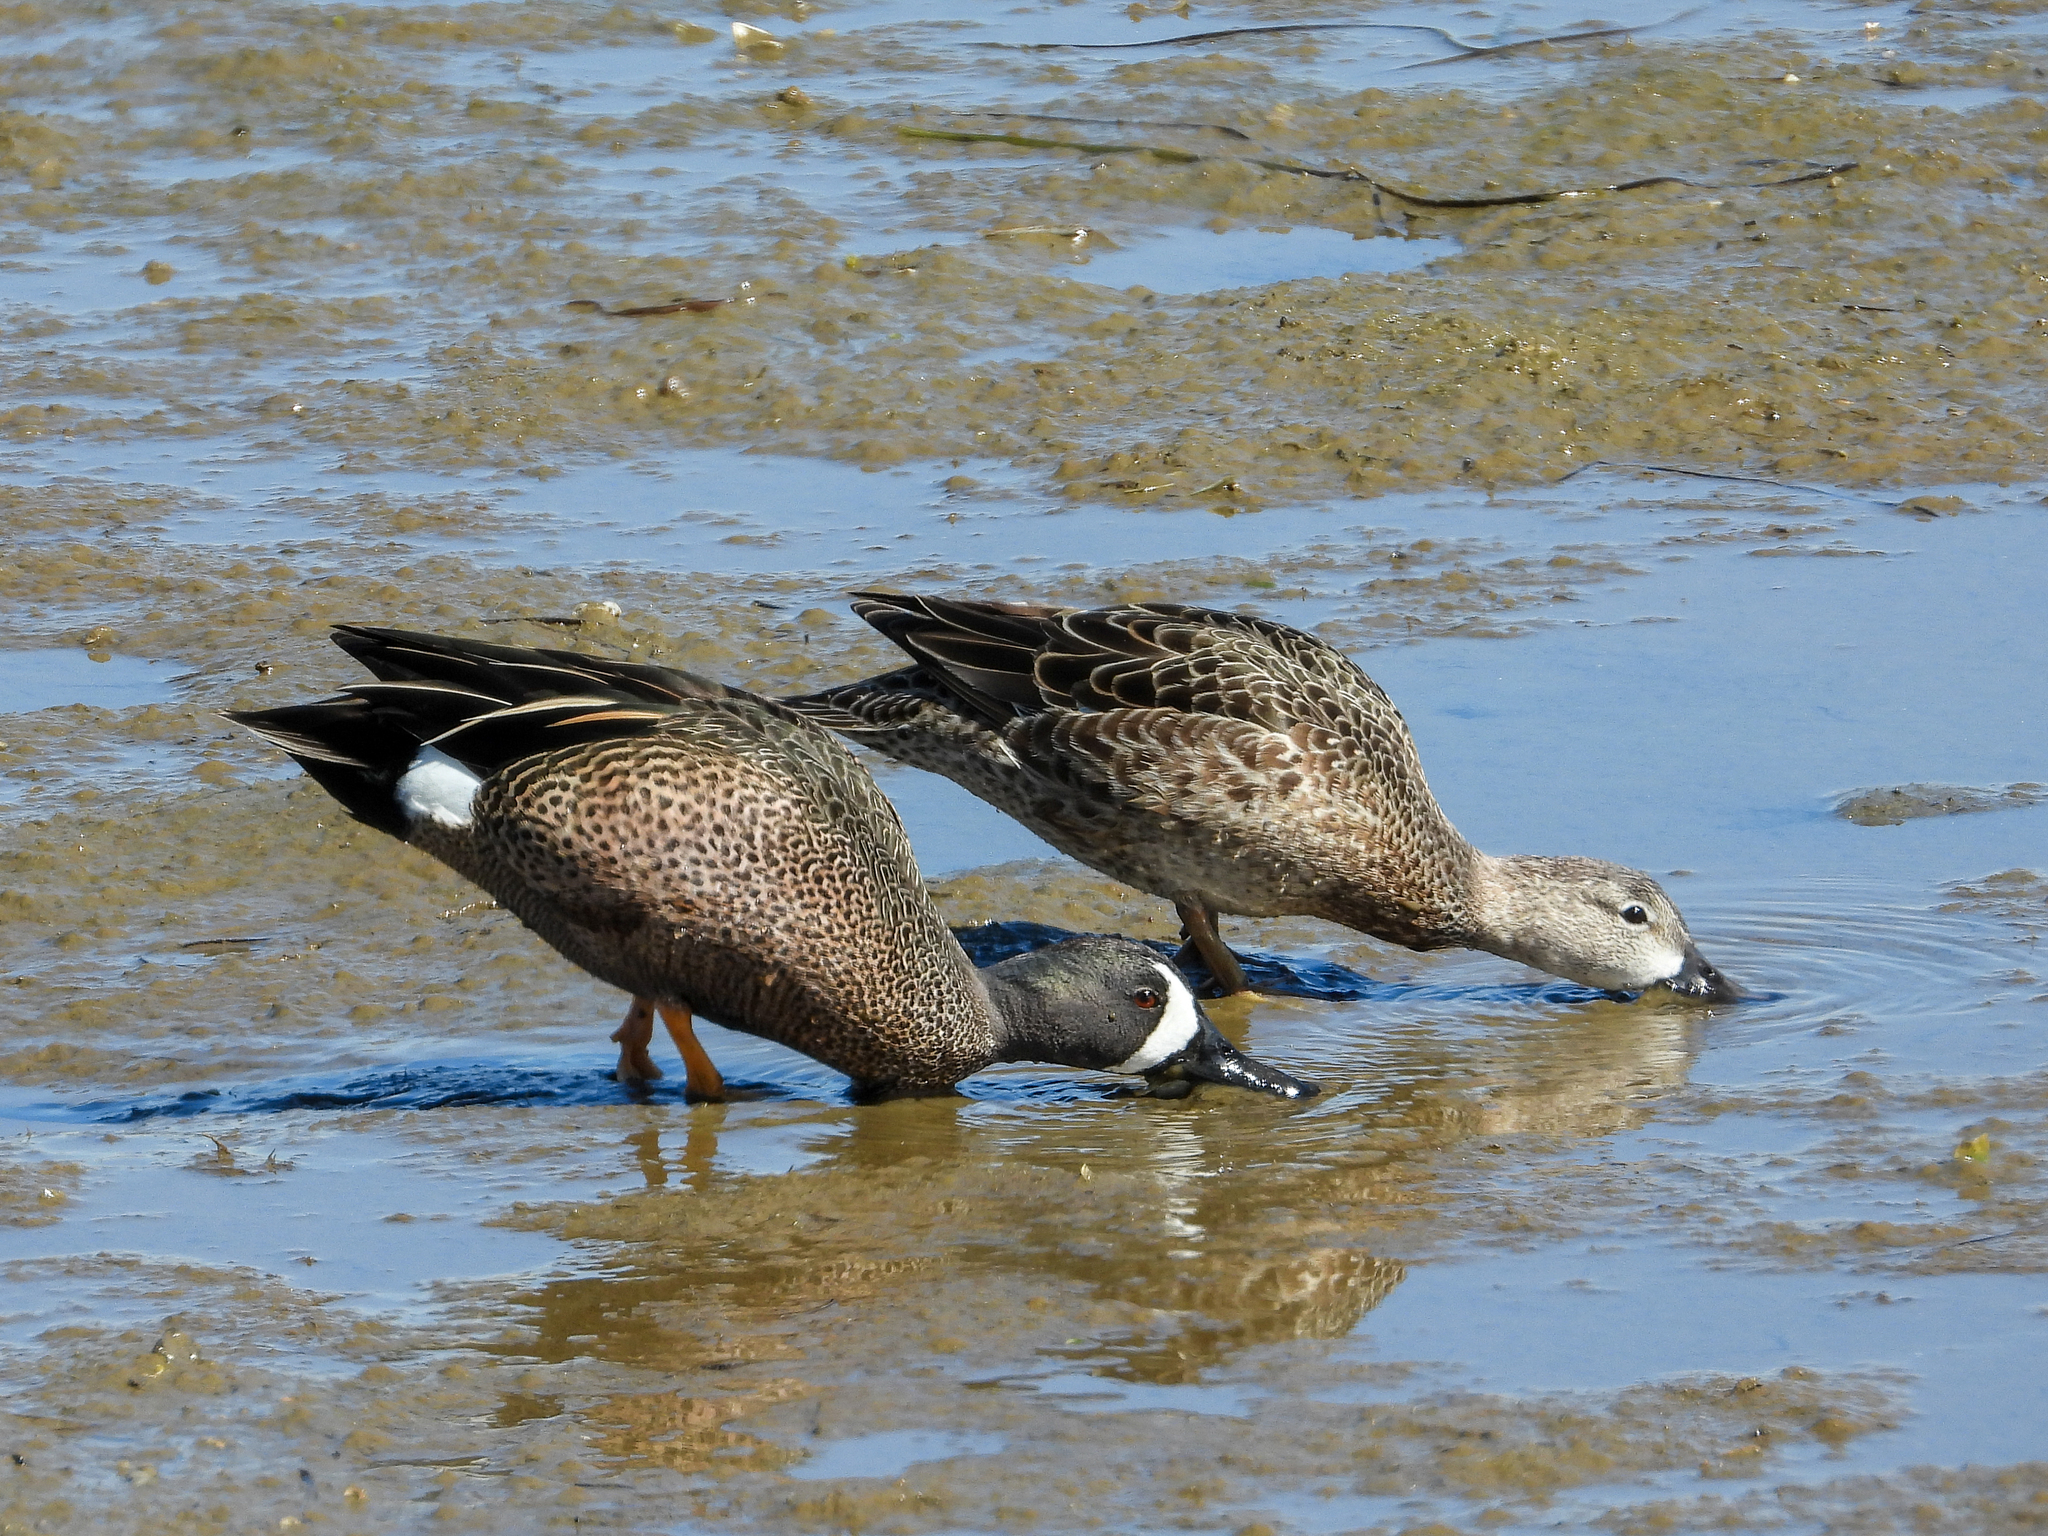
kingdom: Animalia
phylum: Chordata
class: Aves
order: Anseriformes
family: Anatidae
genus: Spatula
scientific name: Spatula discors
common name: Blue-winged teal
